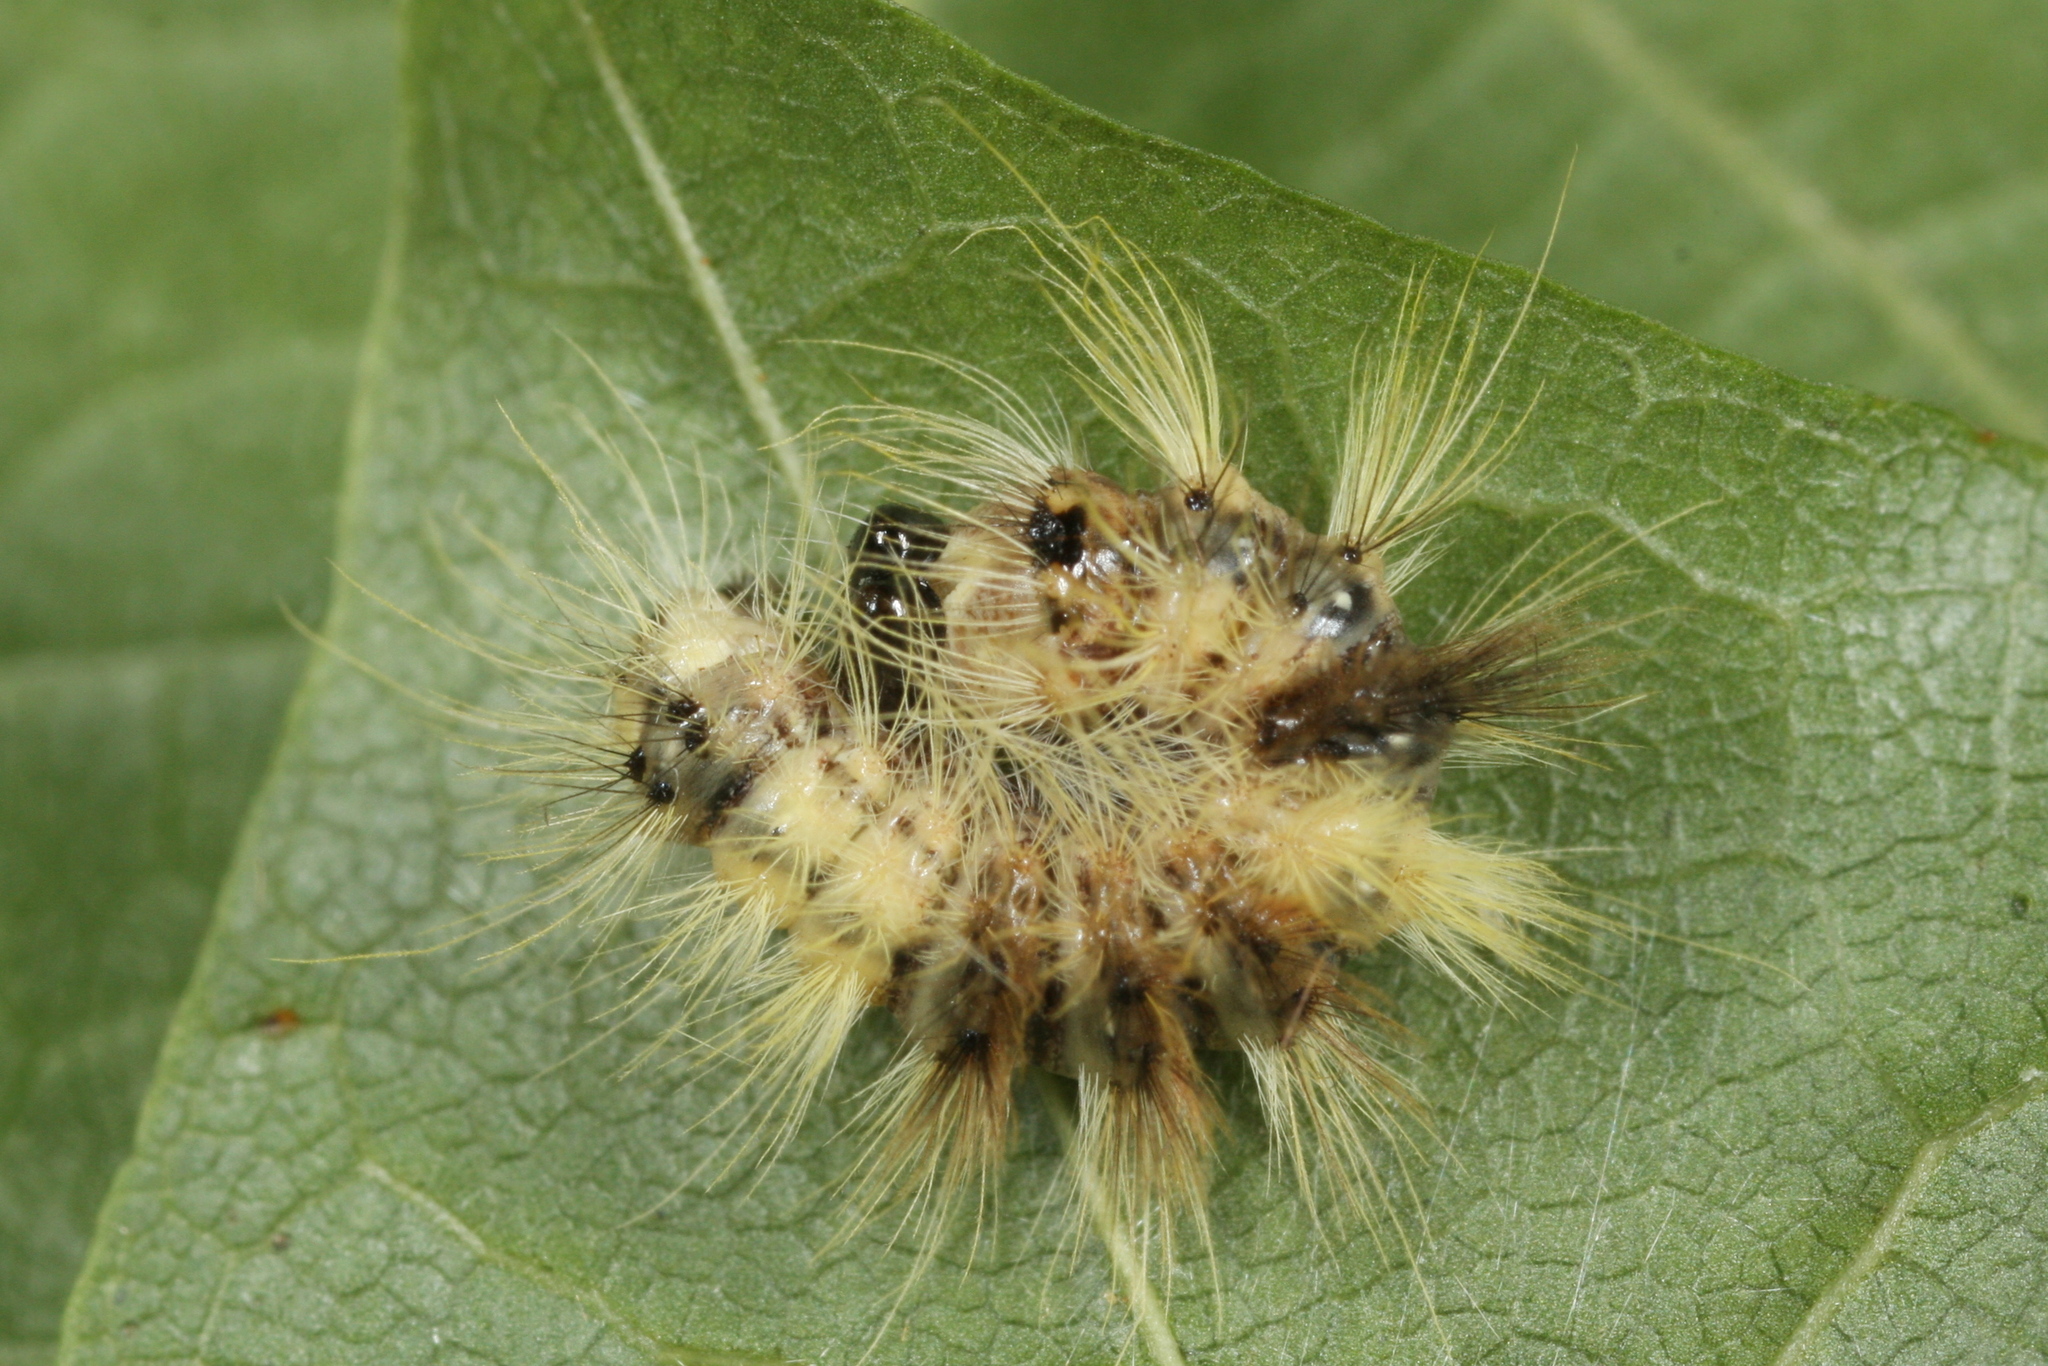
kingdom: Animalia
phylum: Arthropoda
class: Insecta
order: Lepidoptera
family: Noctuidae
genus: Acronicta
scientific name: Acronicta aceris
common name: Sycamore
